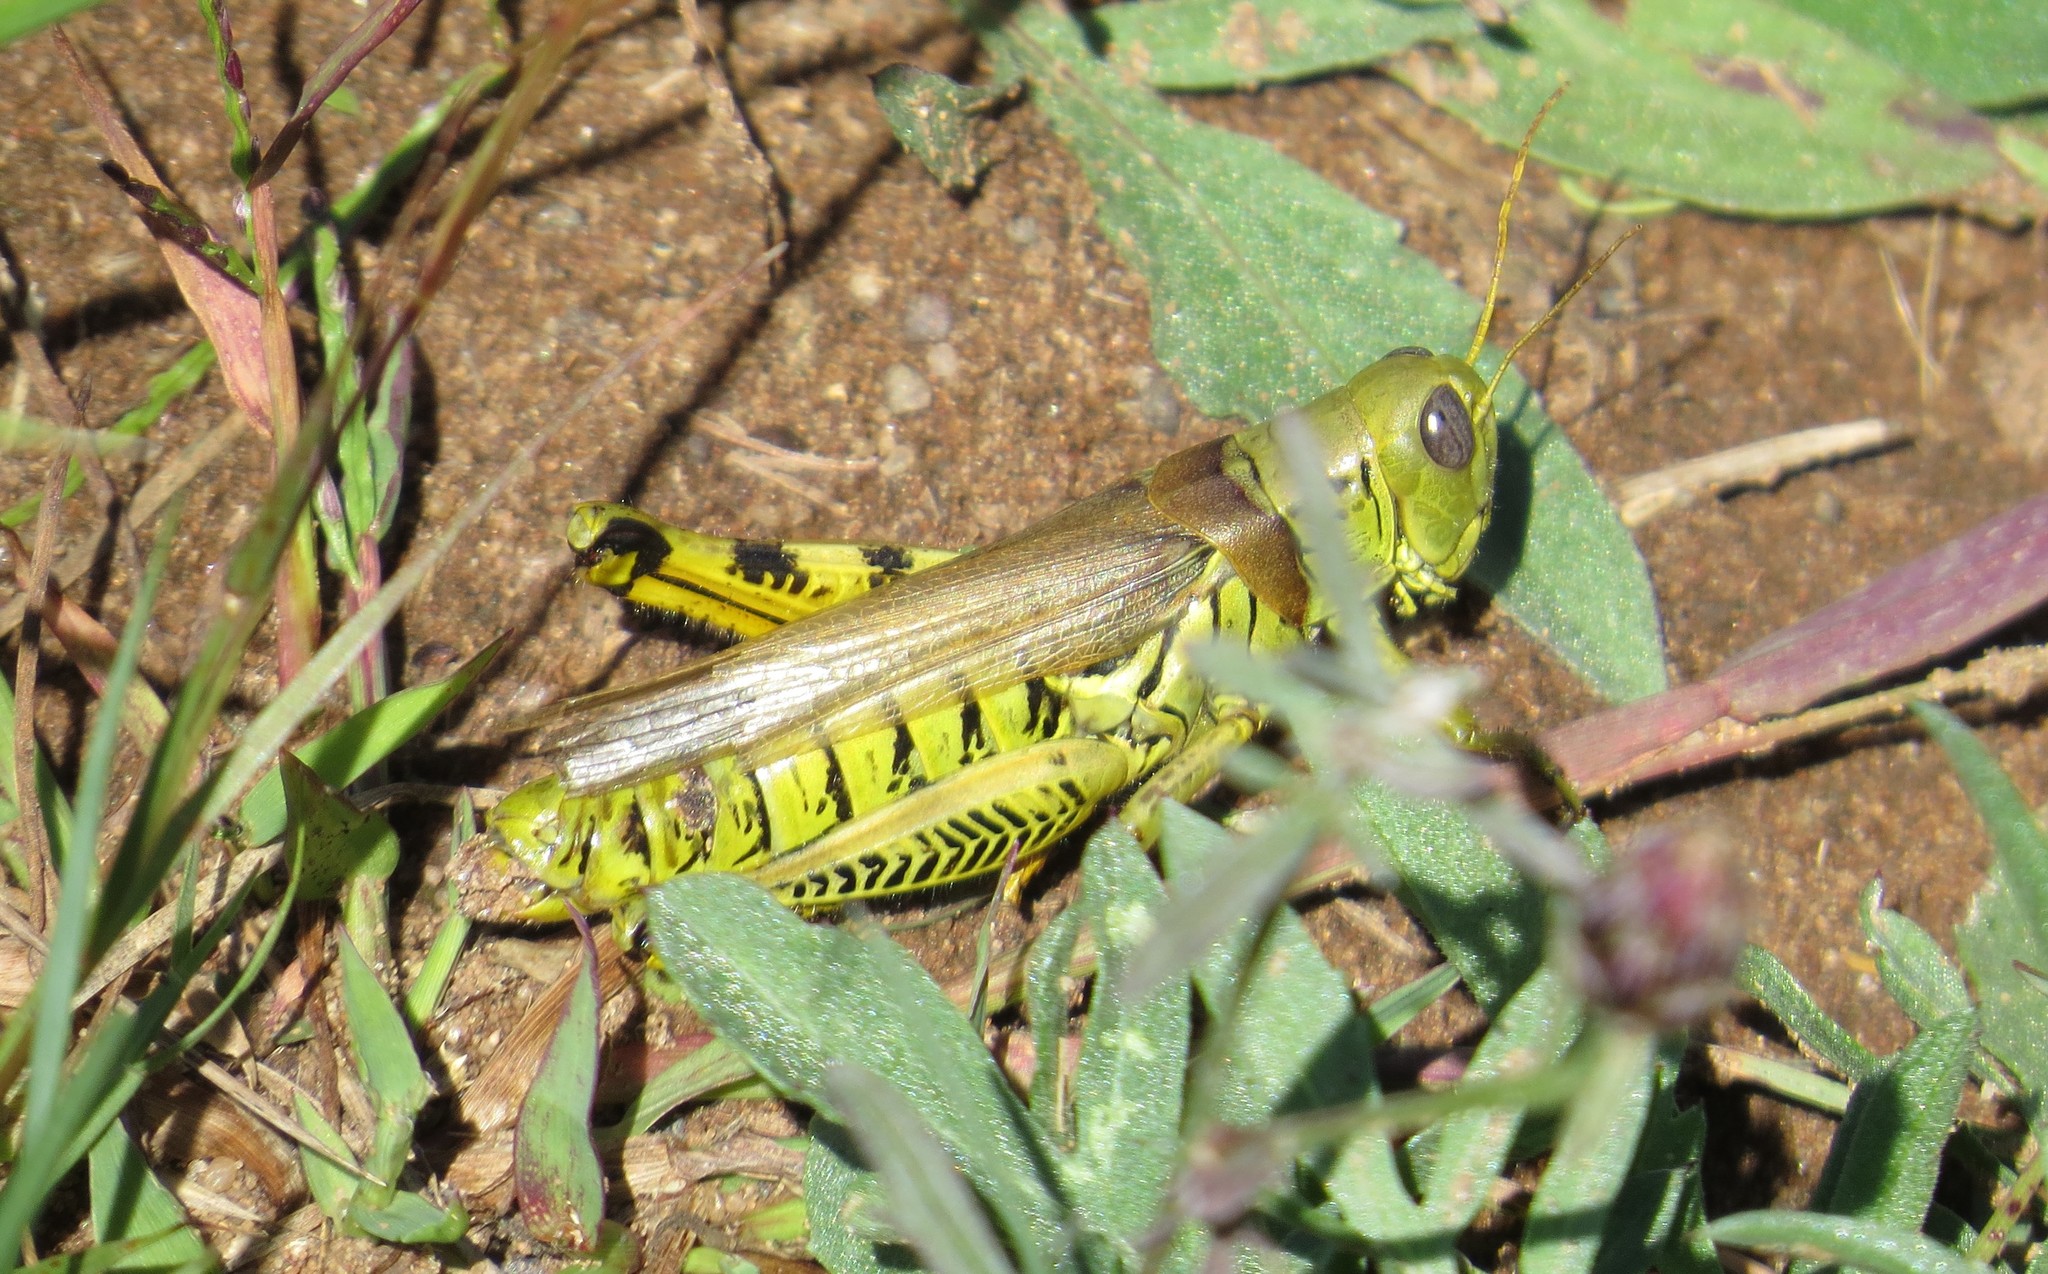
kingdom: Animalia
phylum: Arthropoda
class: Insecta
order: Orthoptera
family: Acrididae
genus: Melanoplus
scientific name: Melanoplus differentialis
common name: Differential grasshopper
